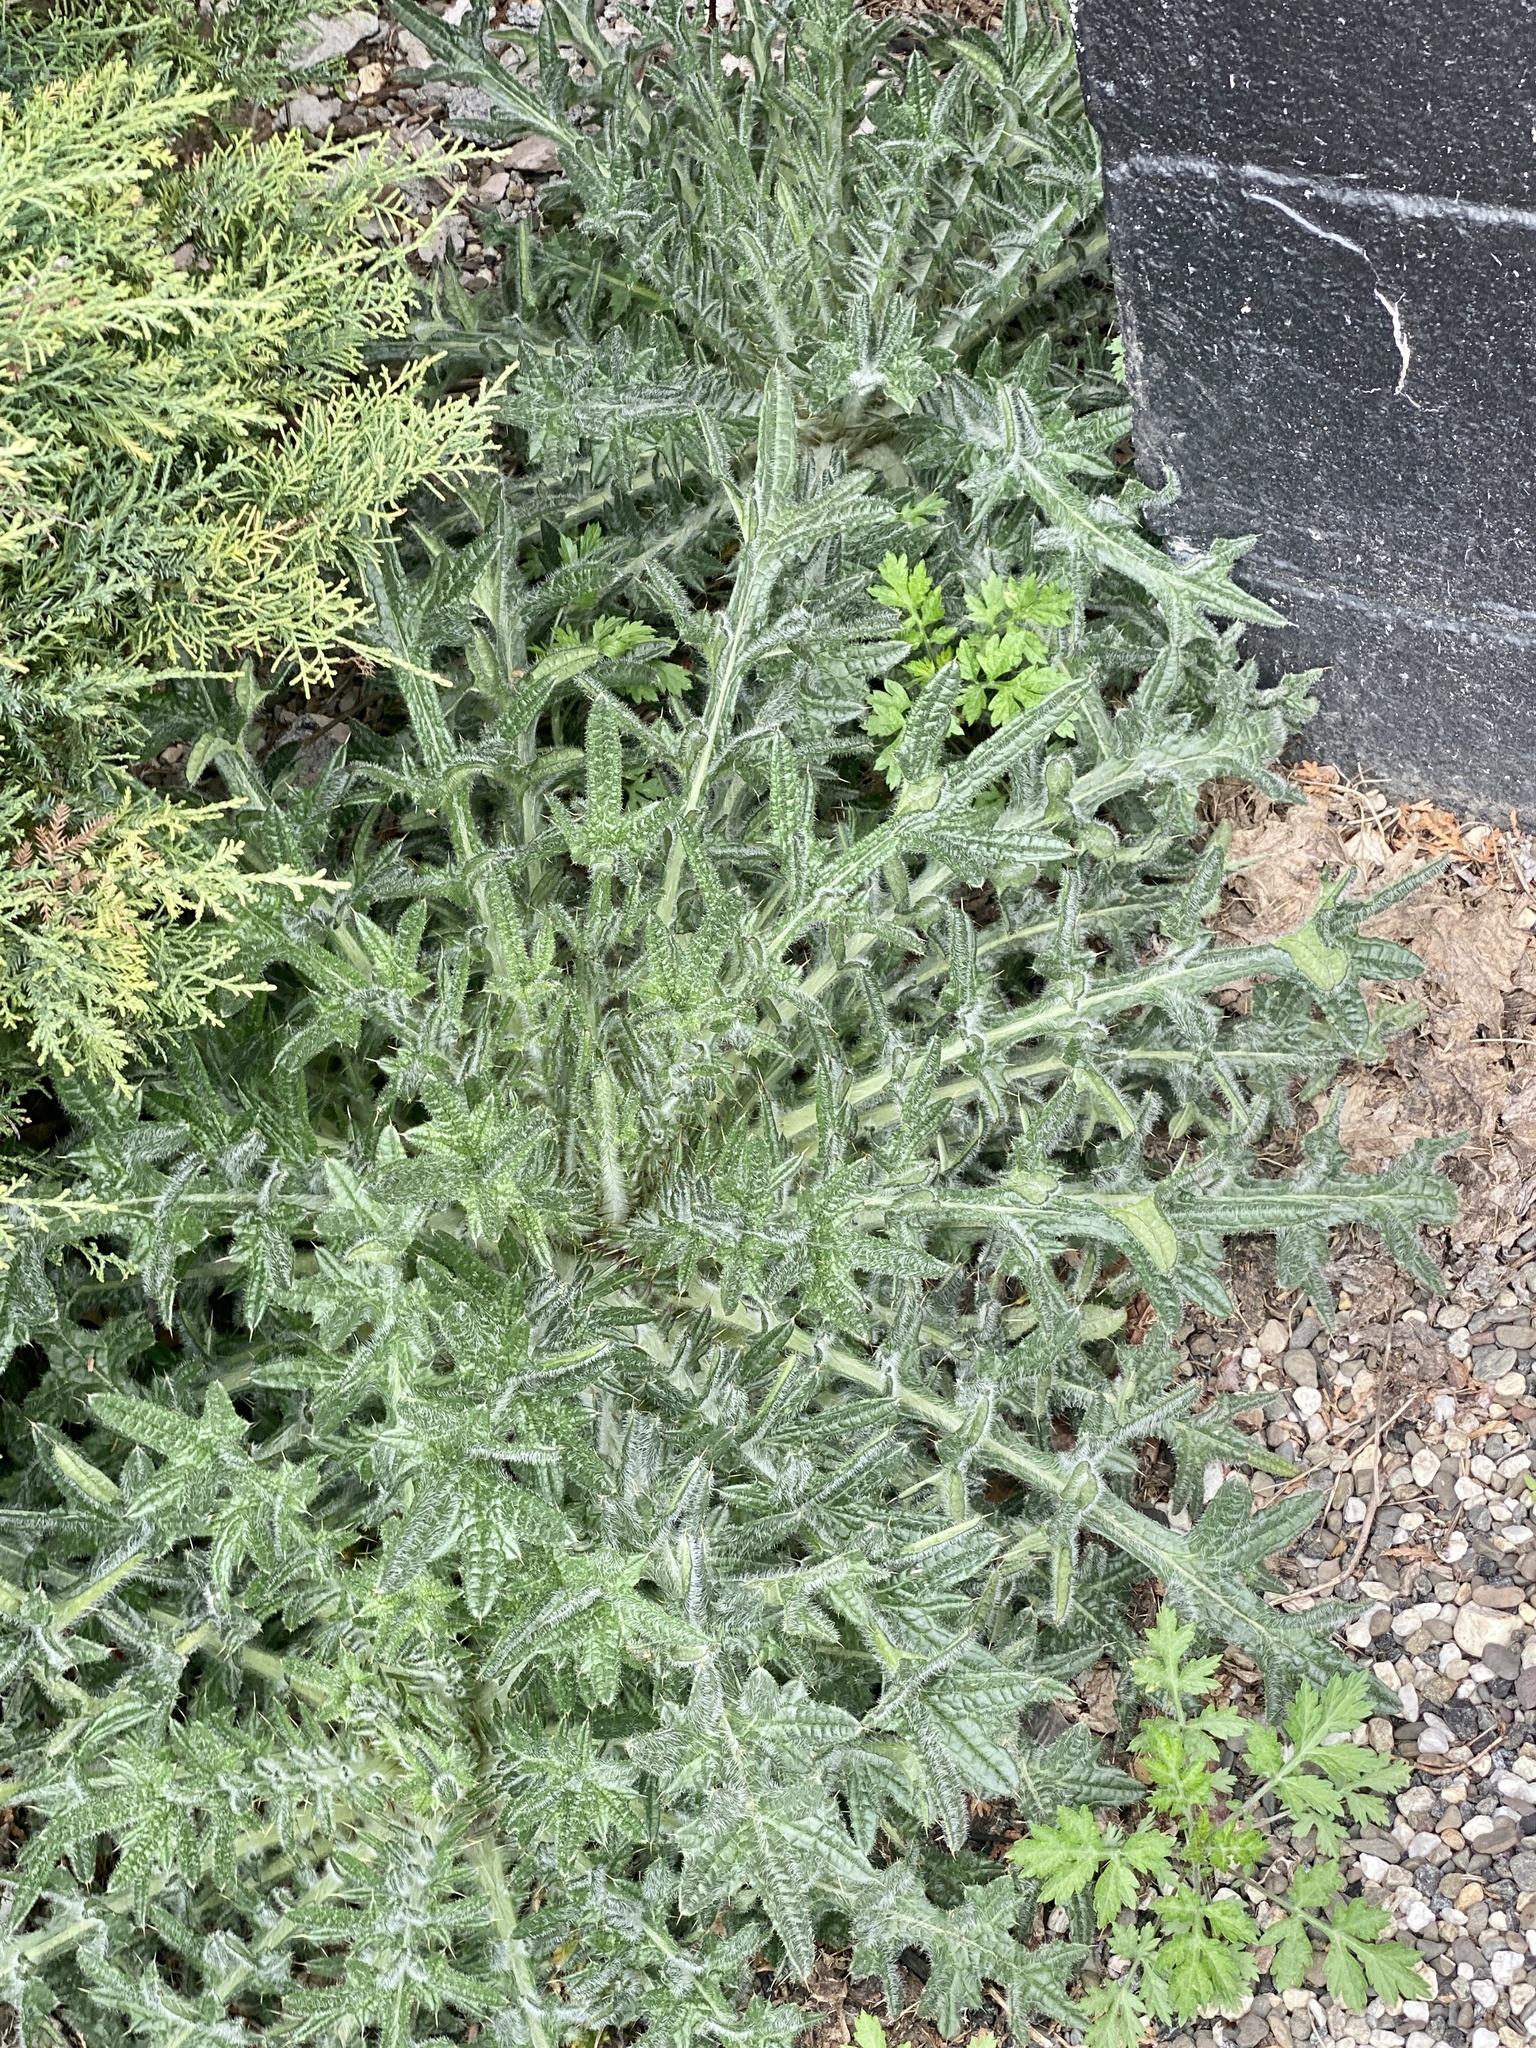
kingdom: Plantae
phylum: Tracheophyta
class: Magnoliopsida
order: Asterales
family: Asteraceae
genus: Cirsium
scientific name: Cirsium vulgare
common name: Bull thistle
